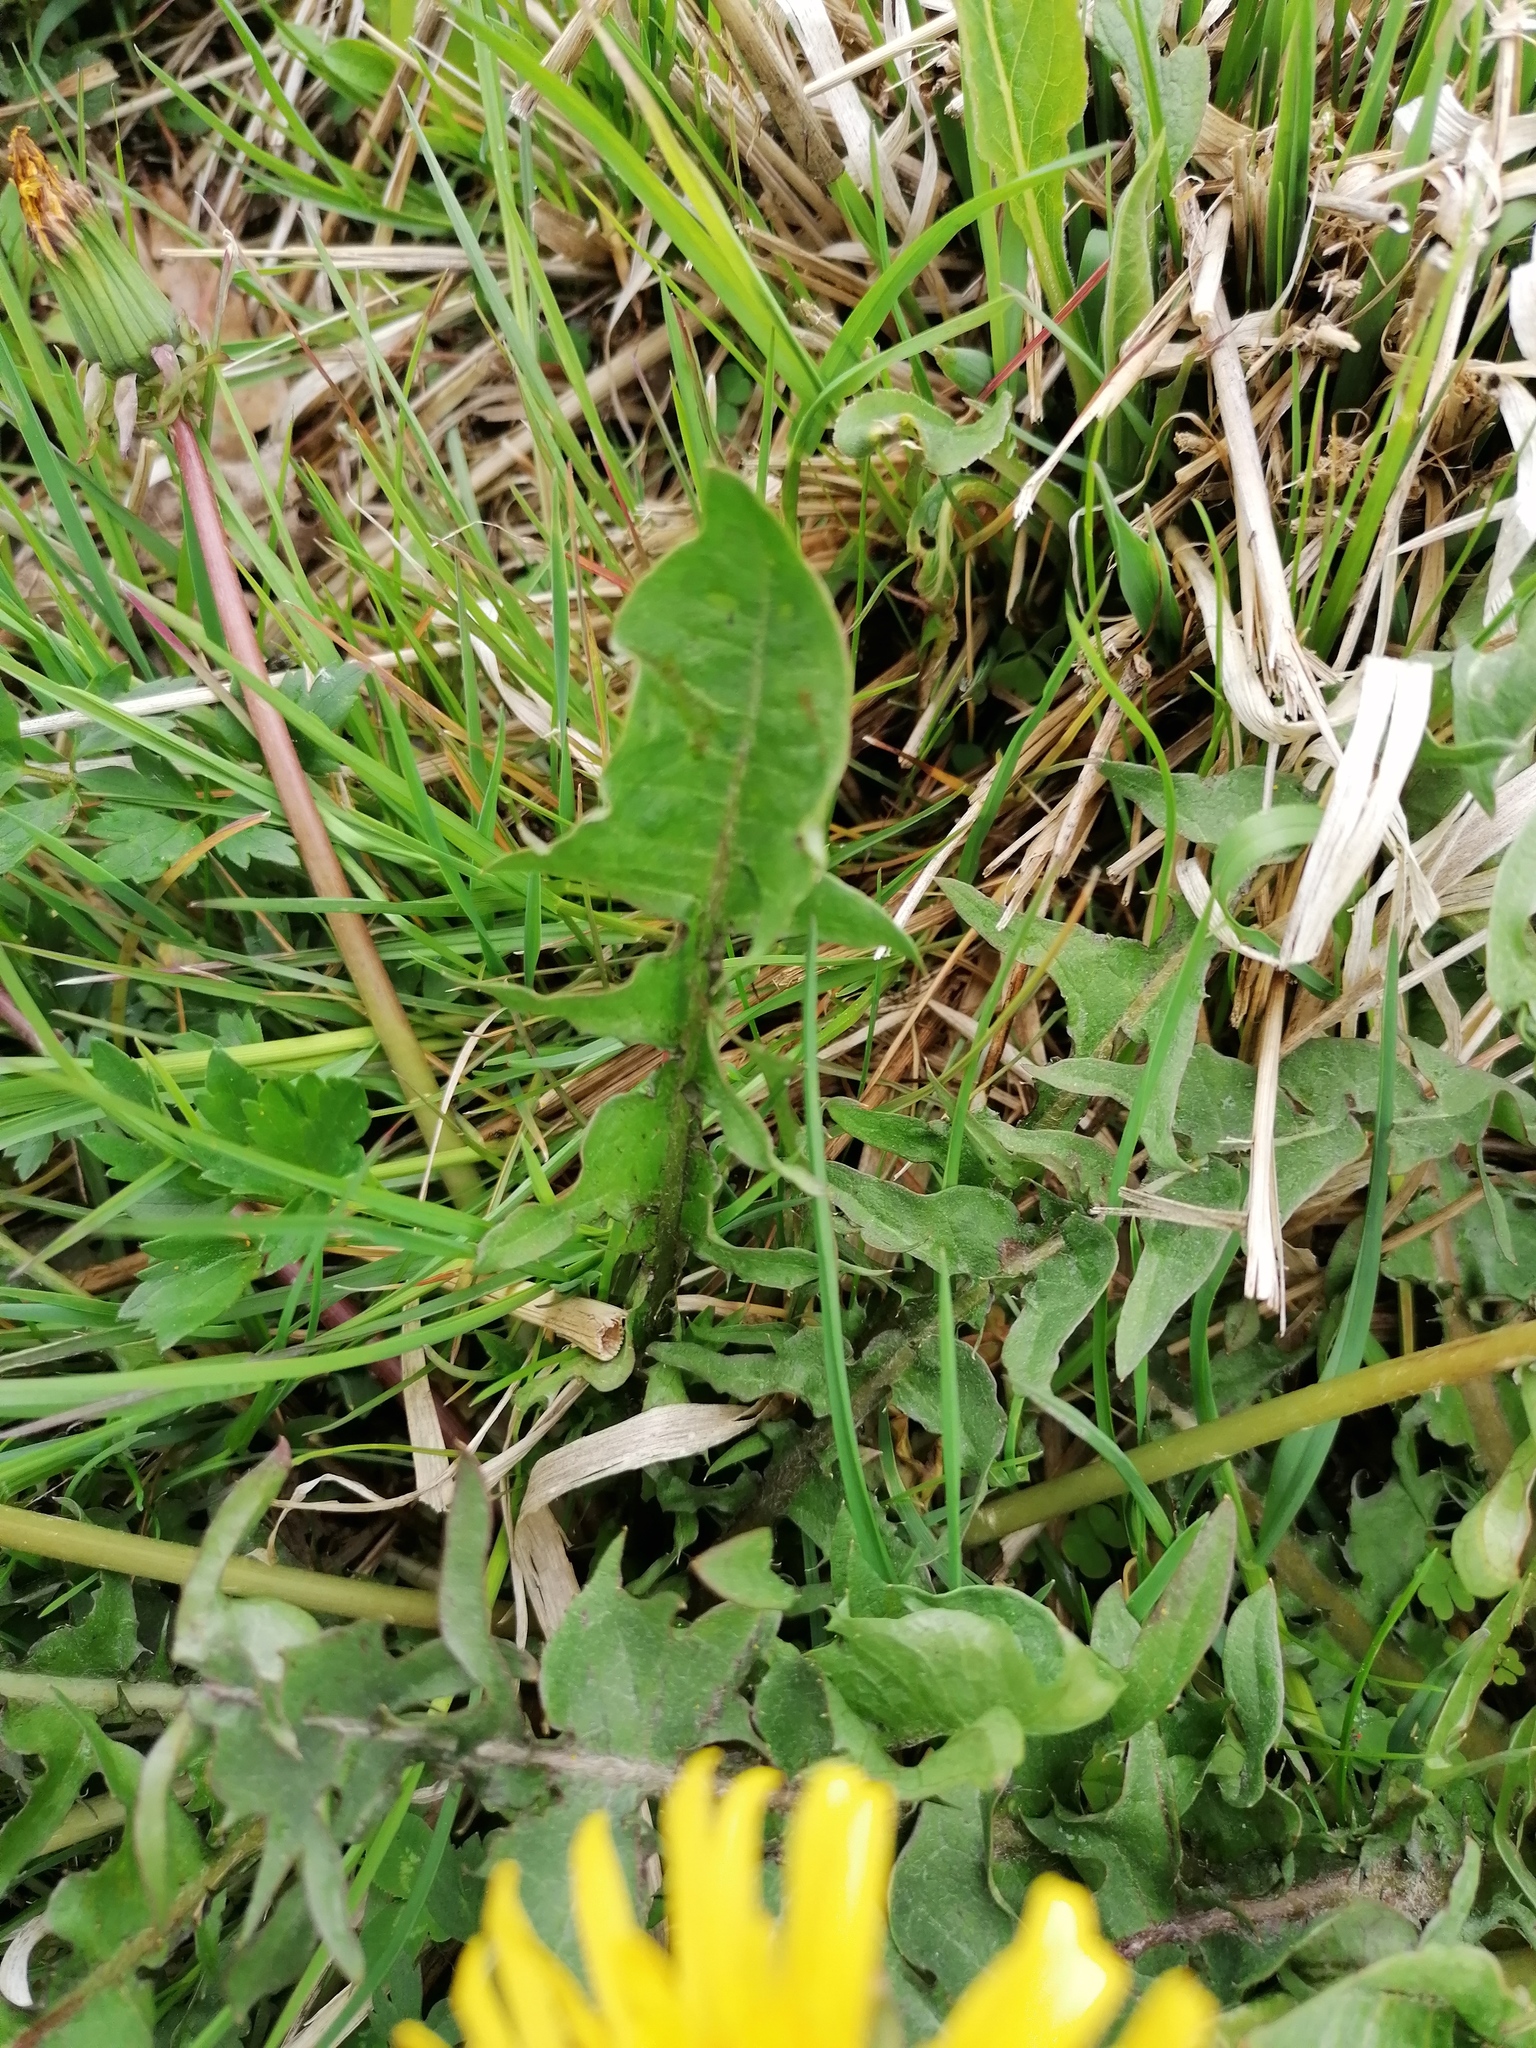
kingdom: Plantae
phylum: Tracheophyta
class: Magnoliopsida
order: Asterales
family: Asteraceae
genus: Taraxacum
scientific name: Taraxacum officinale
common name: Common dandelion
